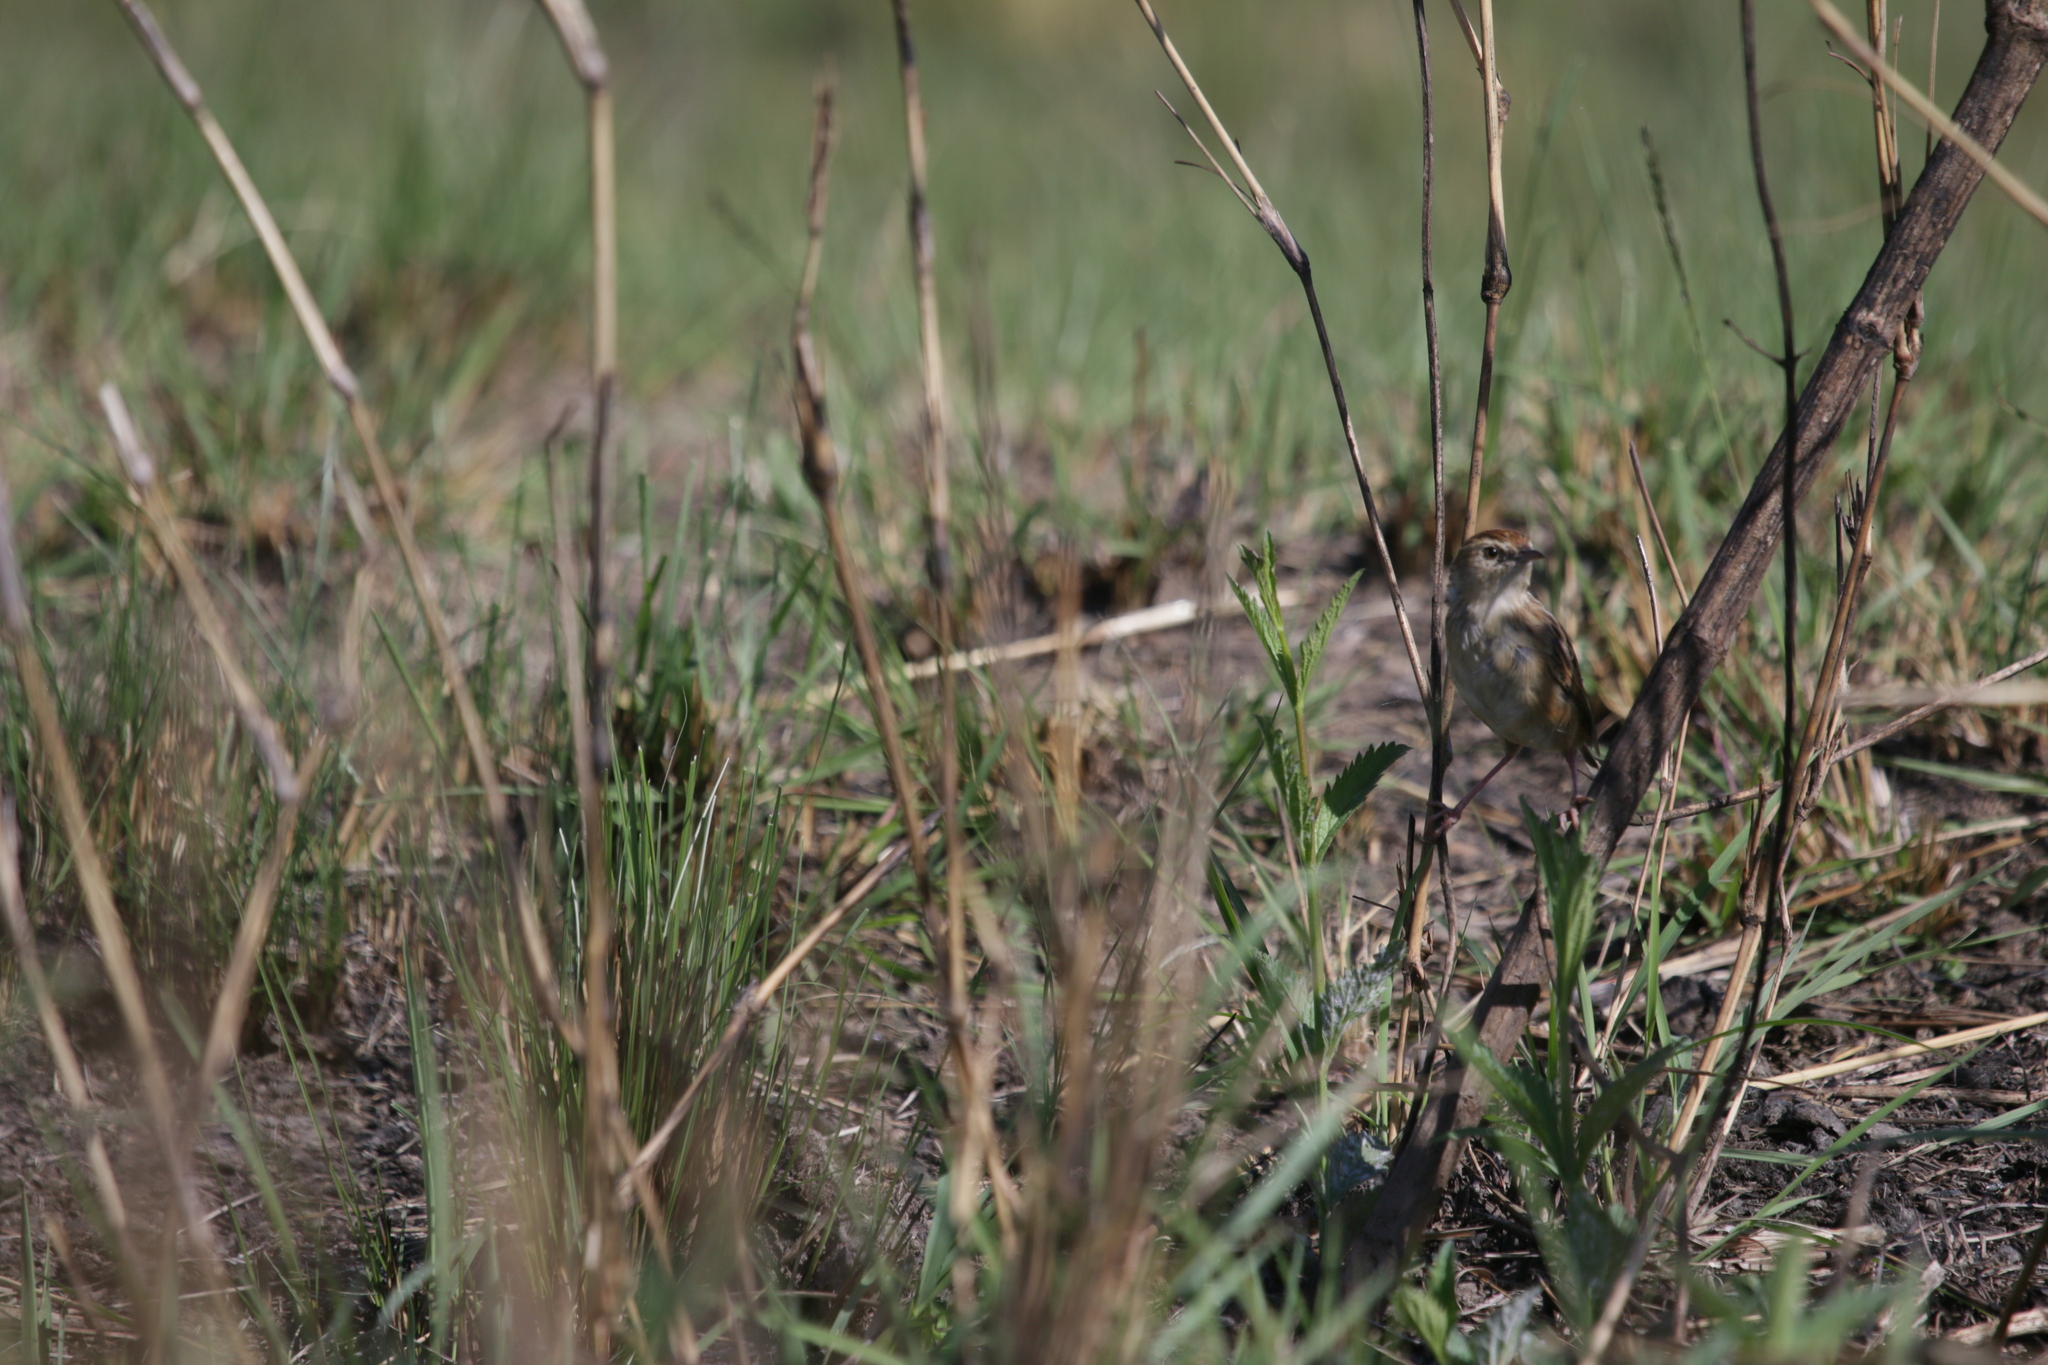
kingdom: Animalia
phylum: Chordata
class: Aves
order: Passeriformes
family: Cisticolidae
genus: Cisticola
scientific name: Cisticola juncidis
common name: Zitting cisticola
